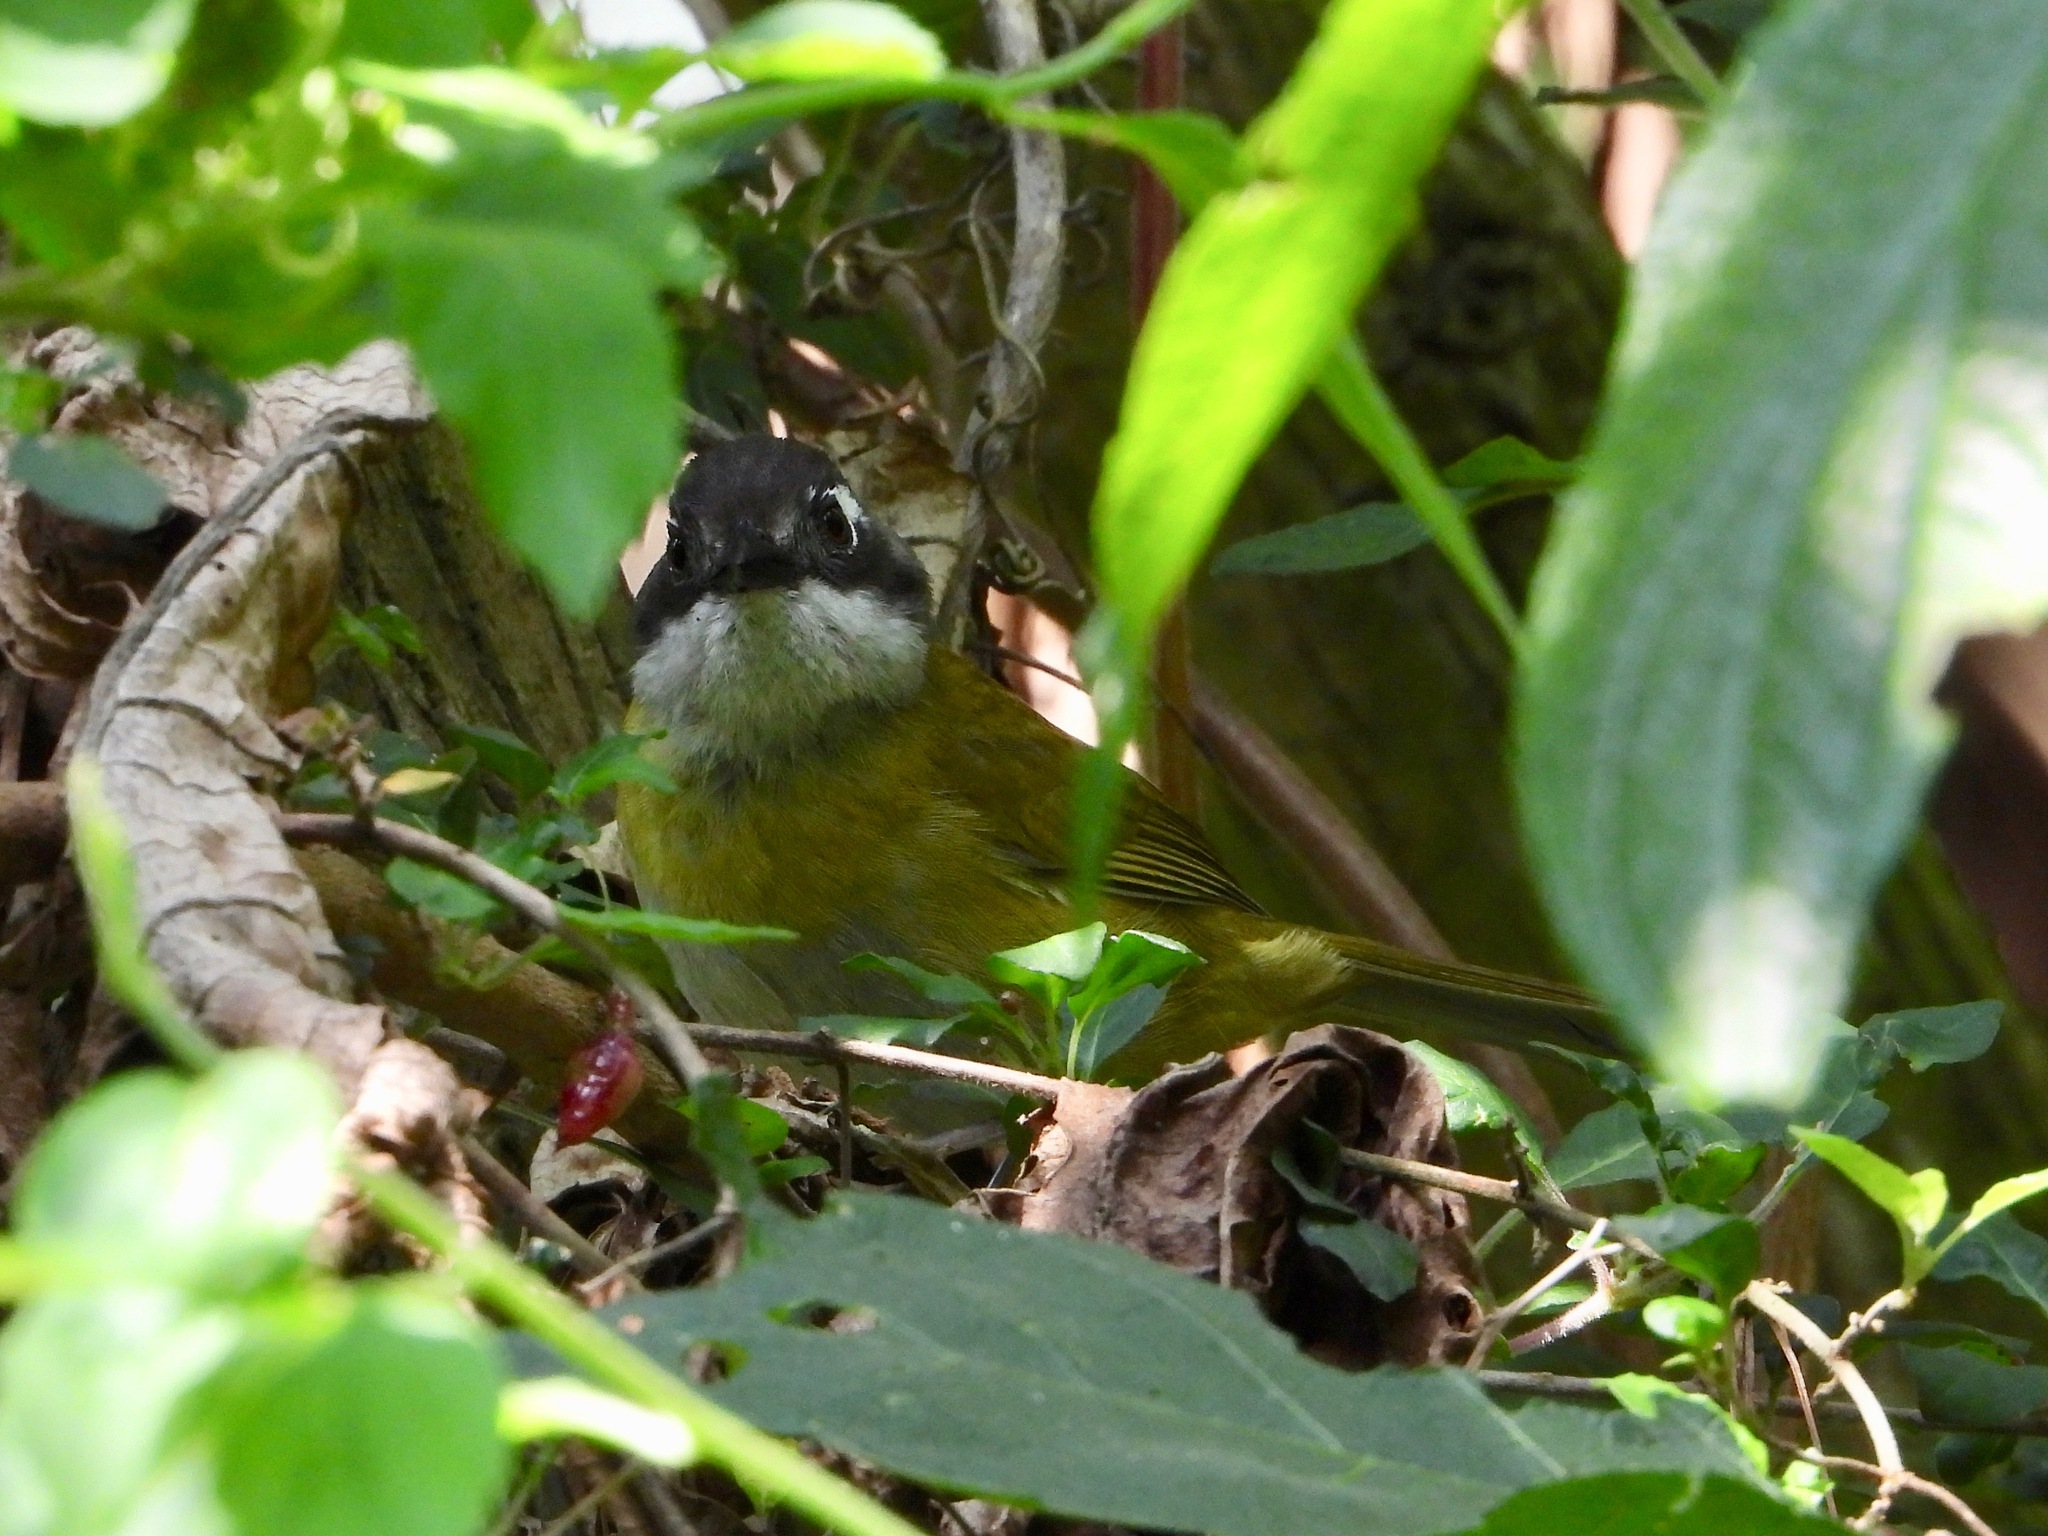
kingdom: Animalia
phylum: Chordata
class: Aves
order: Passeriformes
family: Passerellidae
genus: Chlorospingus
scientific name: Chlorospingus flavopectus
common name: Common chlorospingus
